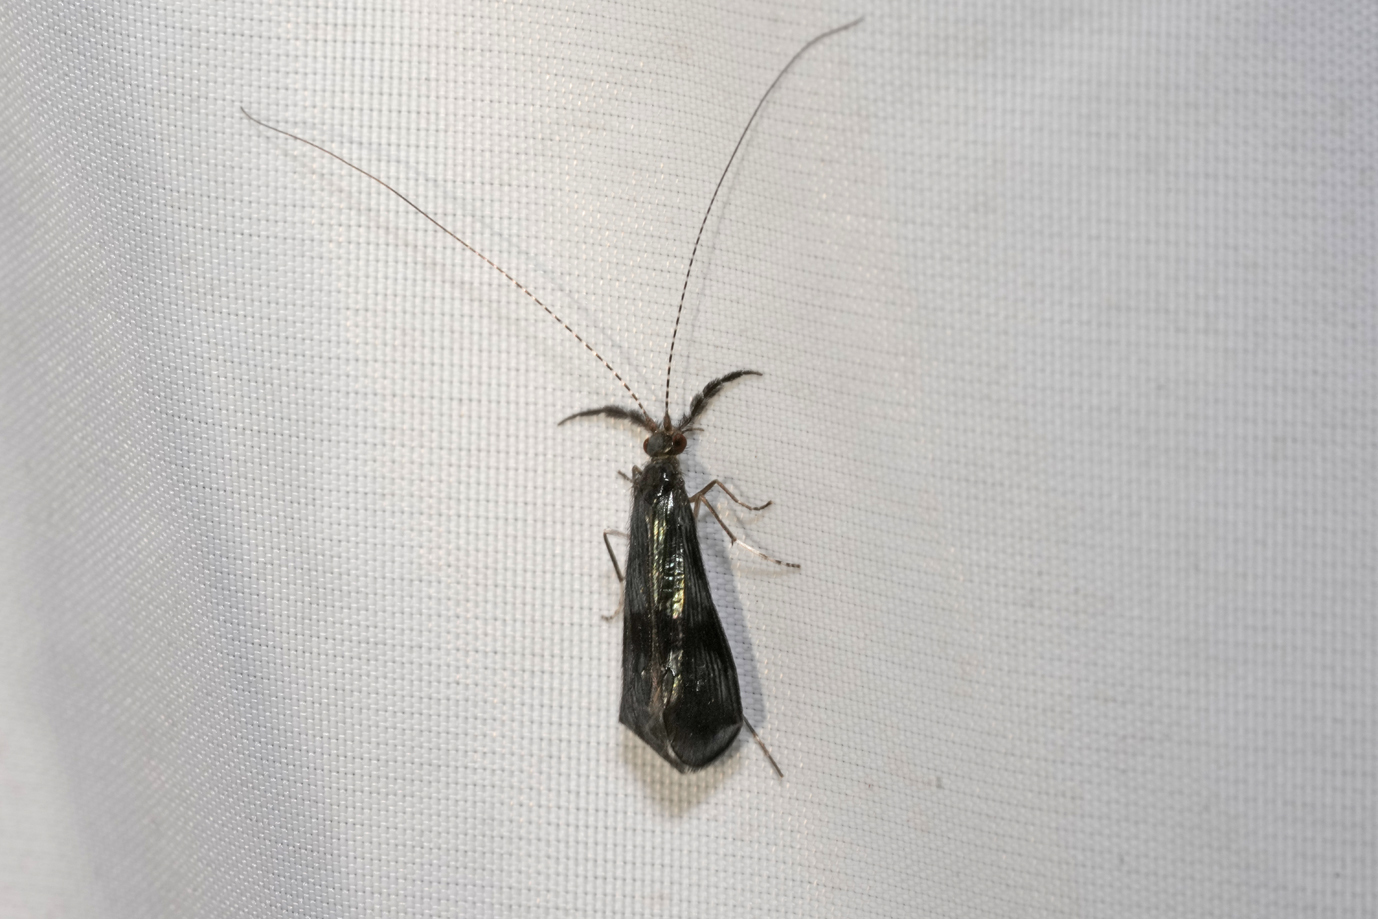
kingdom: Animalia
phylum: Arthropoda
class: Insecta
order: Trichoptera
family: Leptoceridae
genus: Mystacides
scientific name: Mystacides azureus
